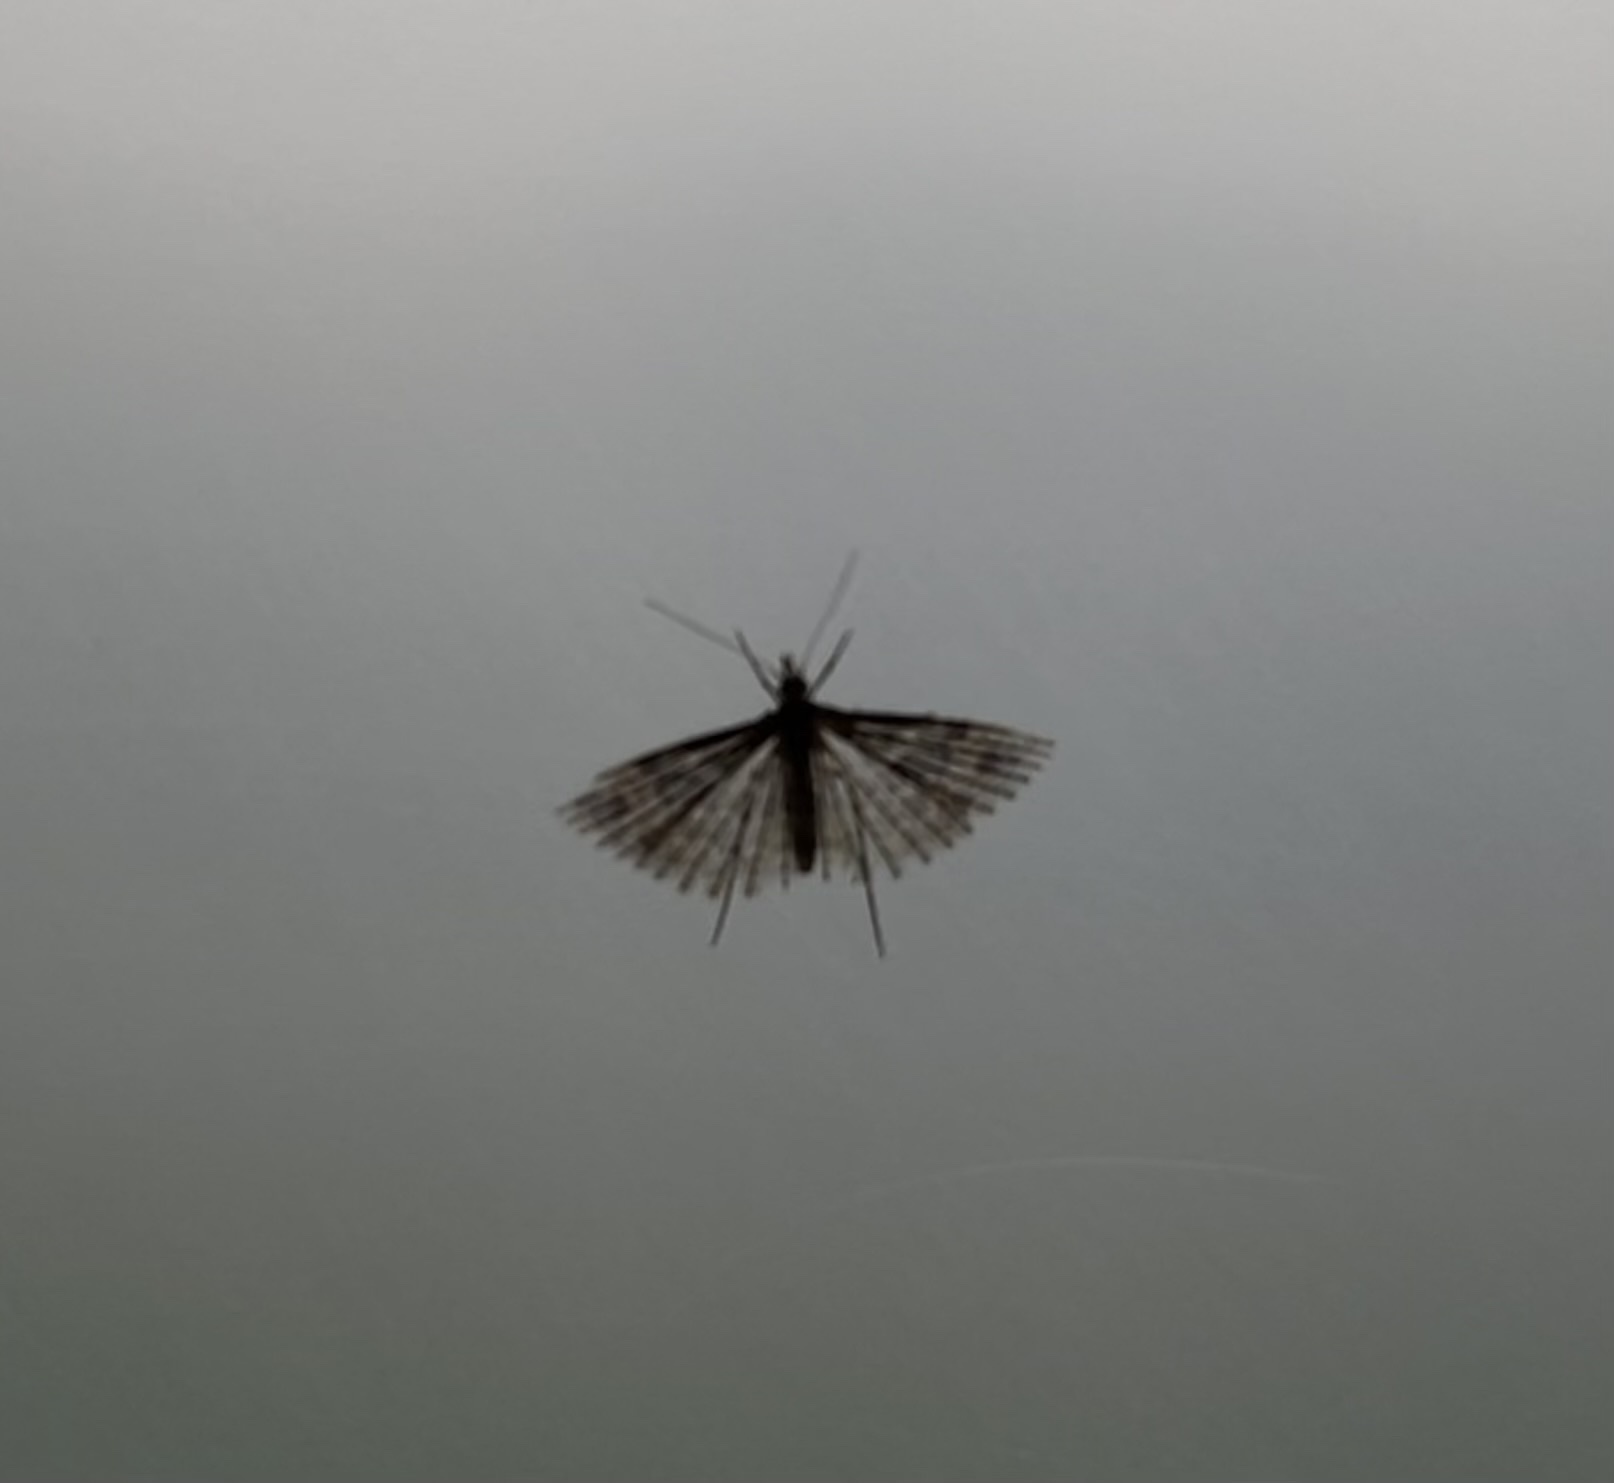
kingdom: Animalia
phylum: Arthropoda
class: Insecta
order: Lepidoptera
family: Alucitidae
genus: Alucita
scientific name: Alucita hexadactyla
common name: Twenty-plume moth
